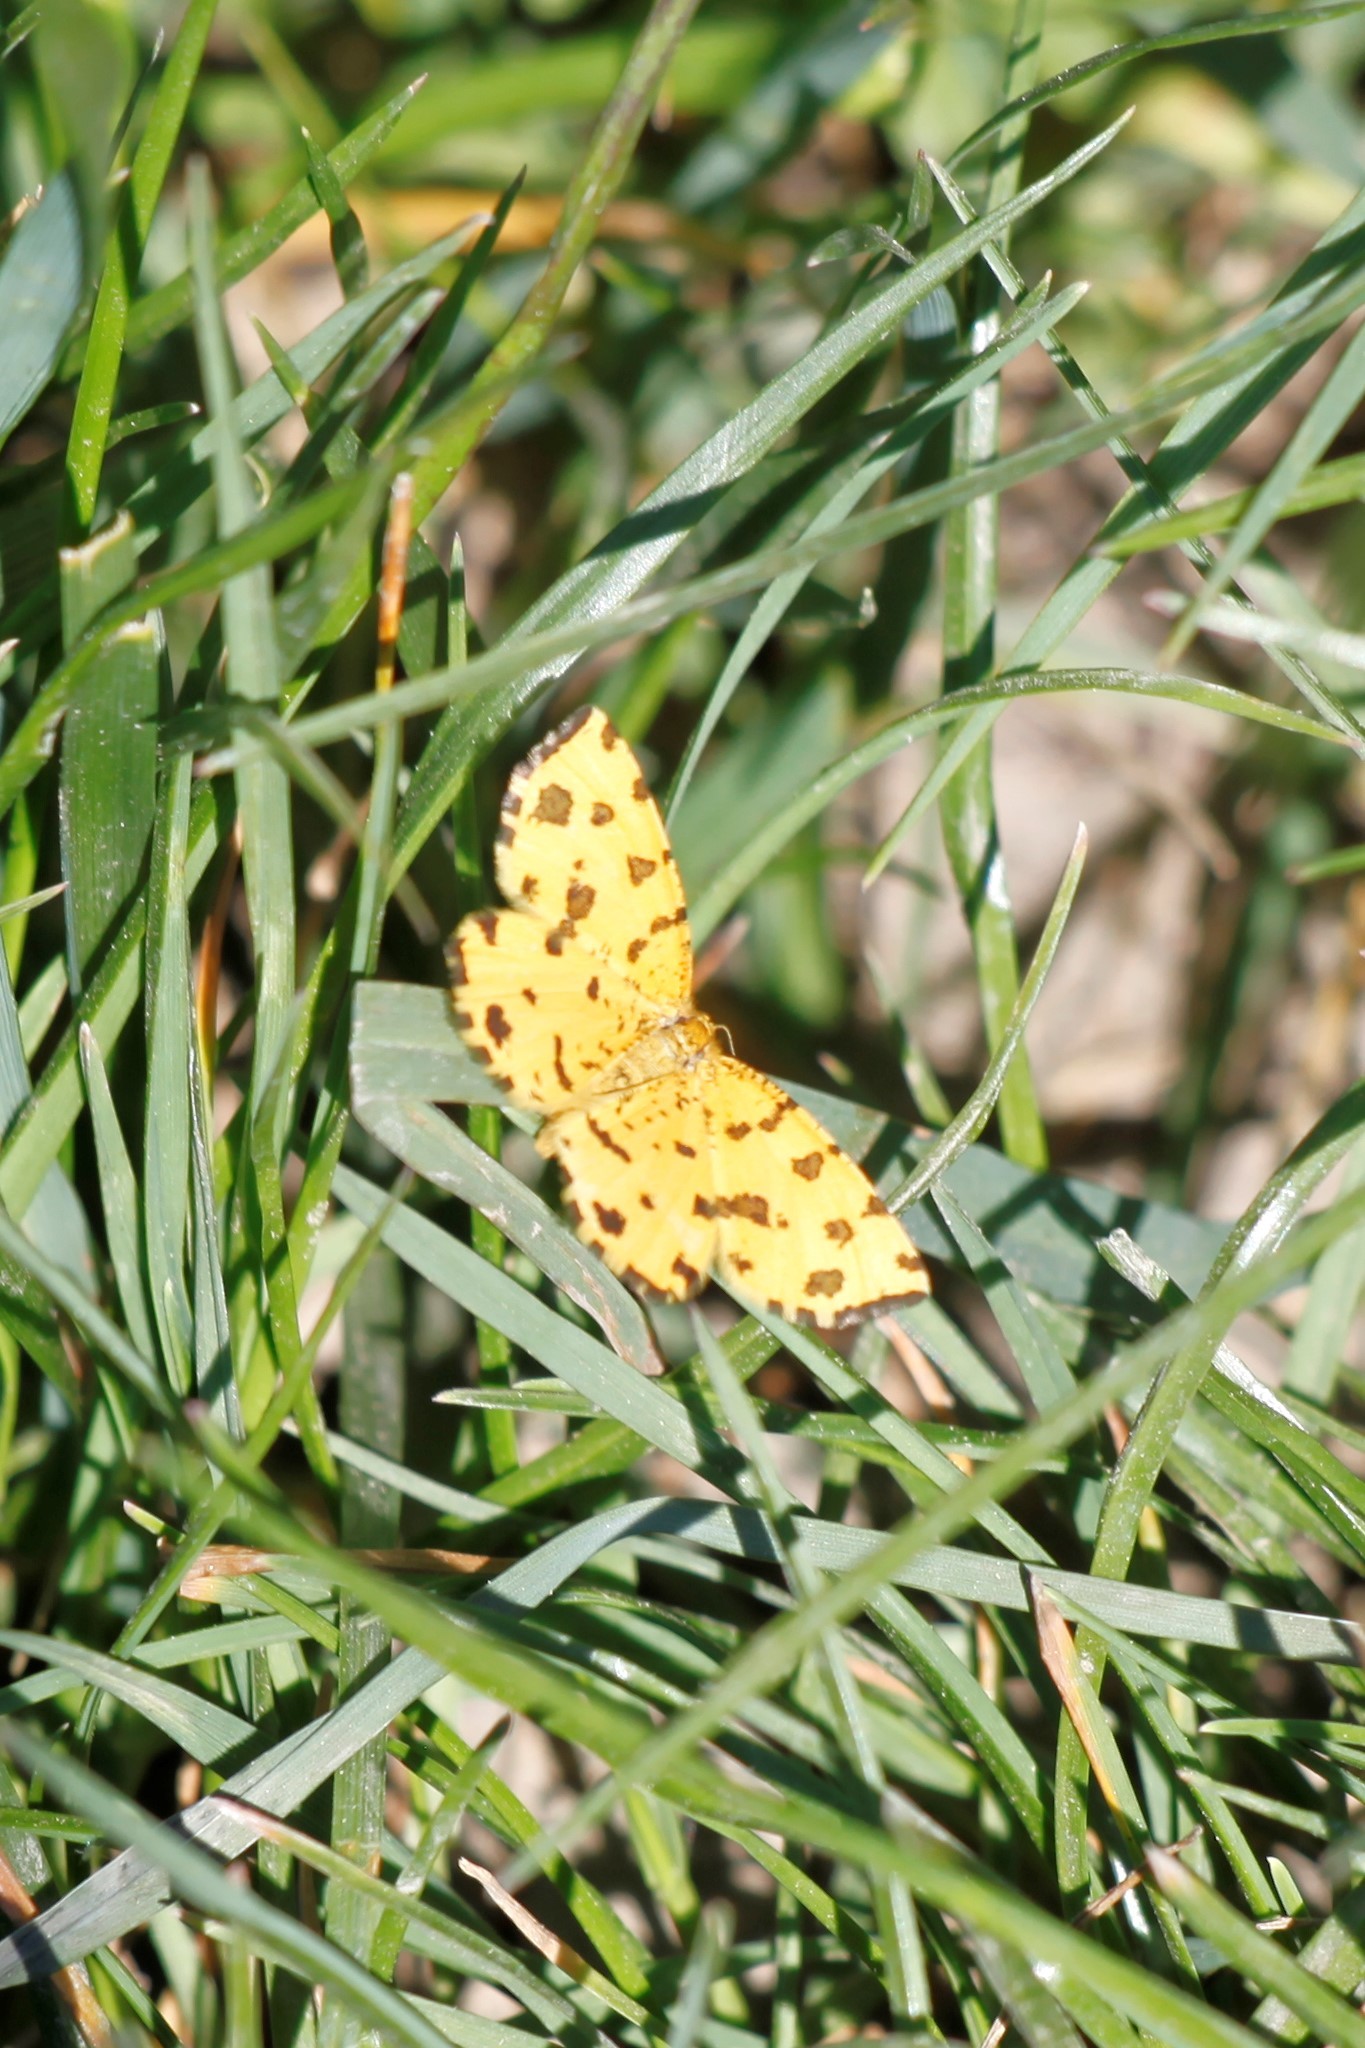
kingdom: Animalia
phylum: Arthropoda
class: Insecta
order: Lepidoptera
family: Geometridae
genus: Pseudopanthera
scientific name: Pseudopanthera macularia
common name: Speckled yellow
